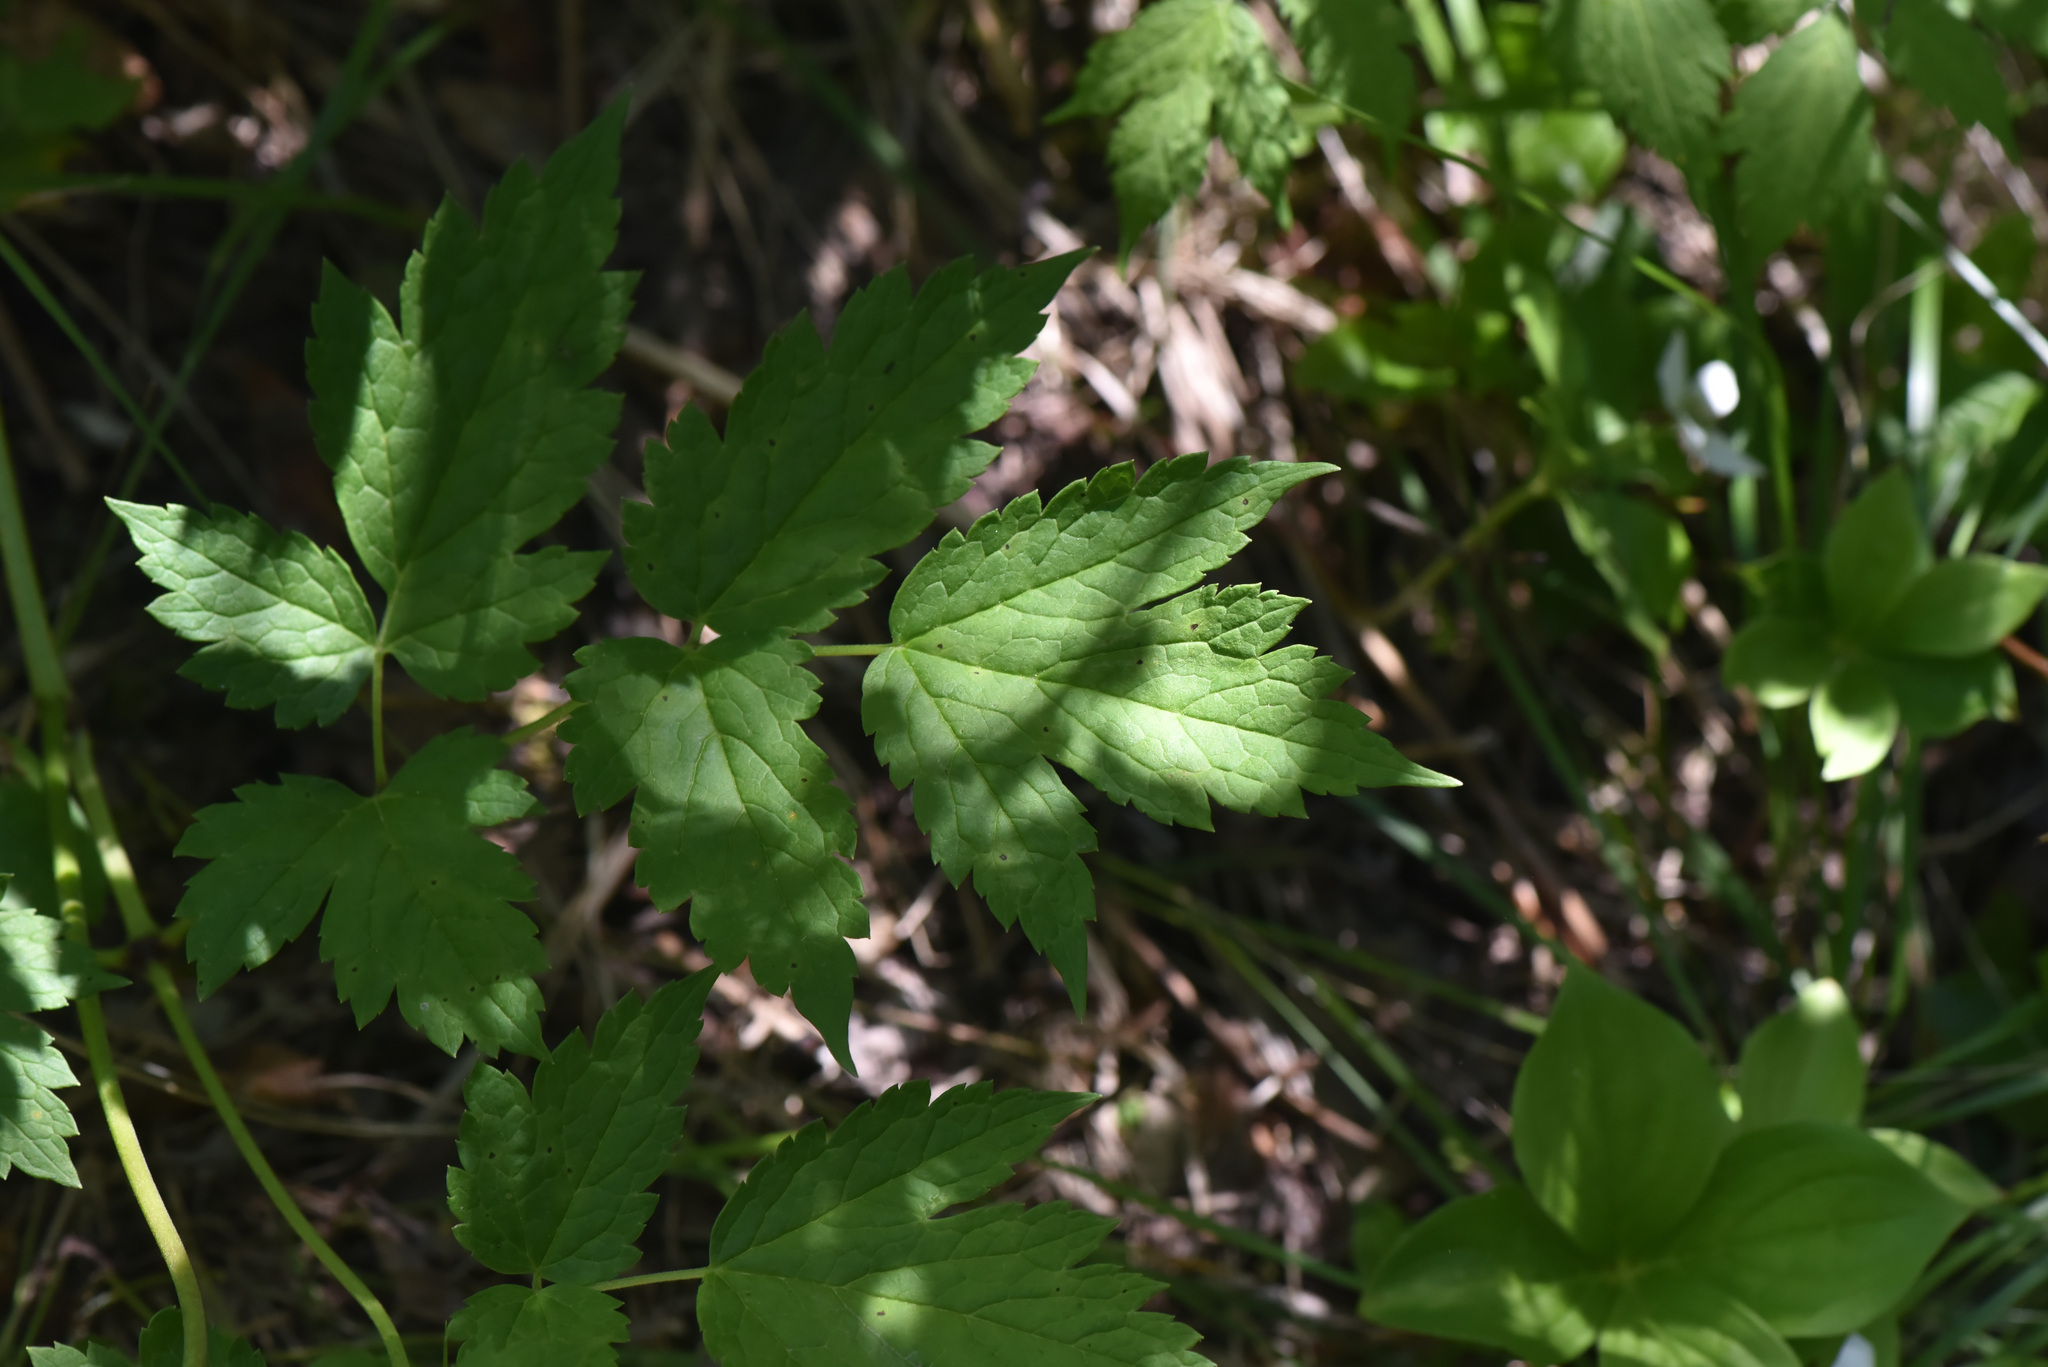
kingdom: Plantae
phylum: Tracheophyta
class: Magnoliopsida
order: Ranunculales
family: Ranunculaceae
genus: Actaea
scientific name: Actaea rubra
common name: Red baneberry
